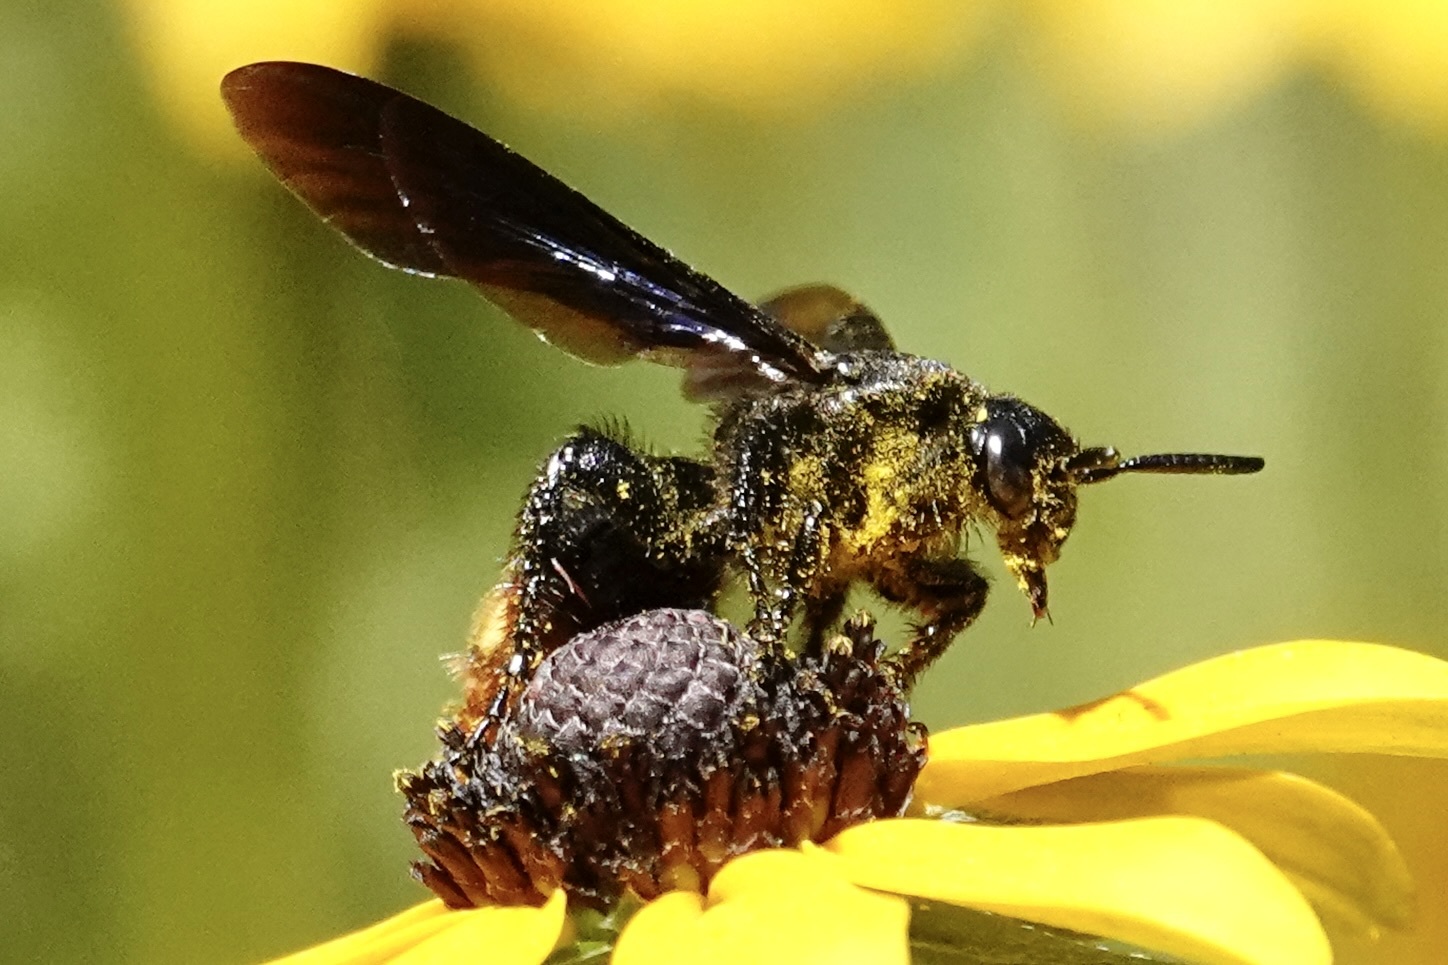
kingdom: Animalia
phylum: Arthropoda
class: Insecta
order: Hymenoptera
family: Scoliidae
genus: Scolia
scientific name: Scolia dubia
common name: Blue-winged scoliid wasp
